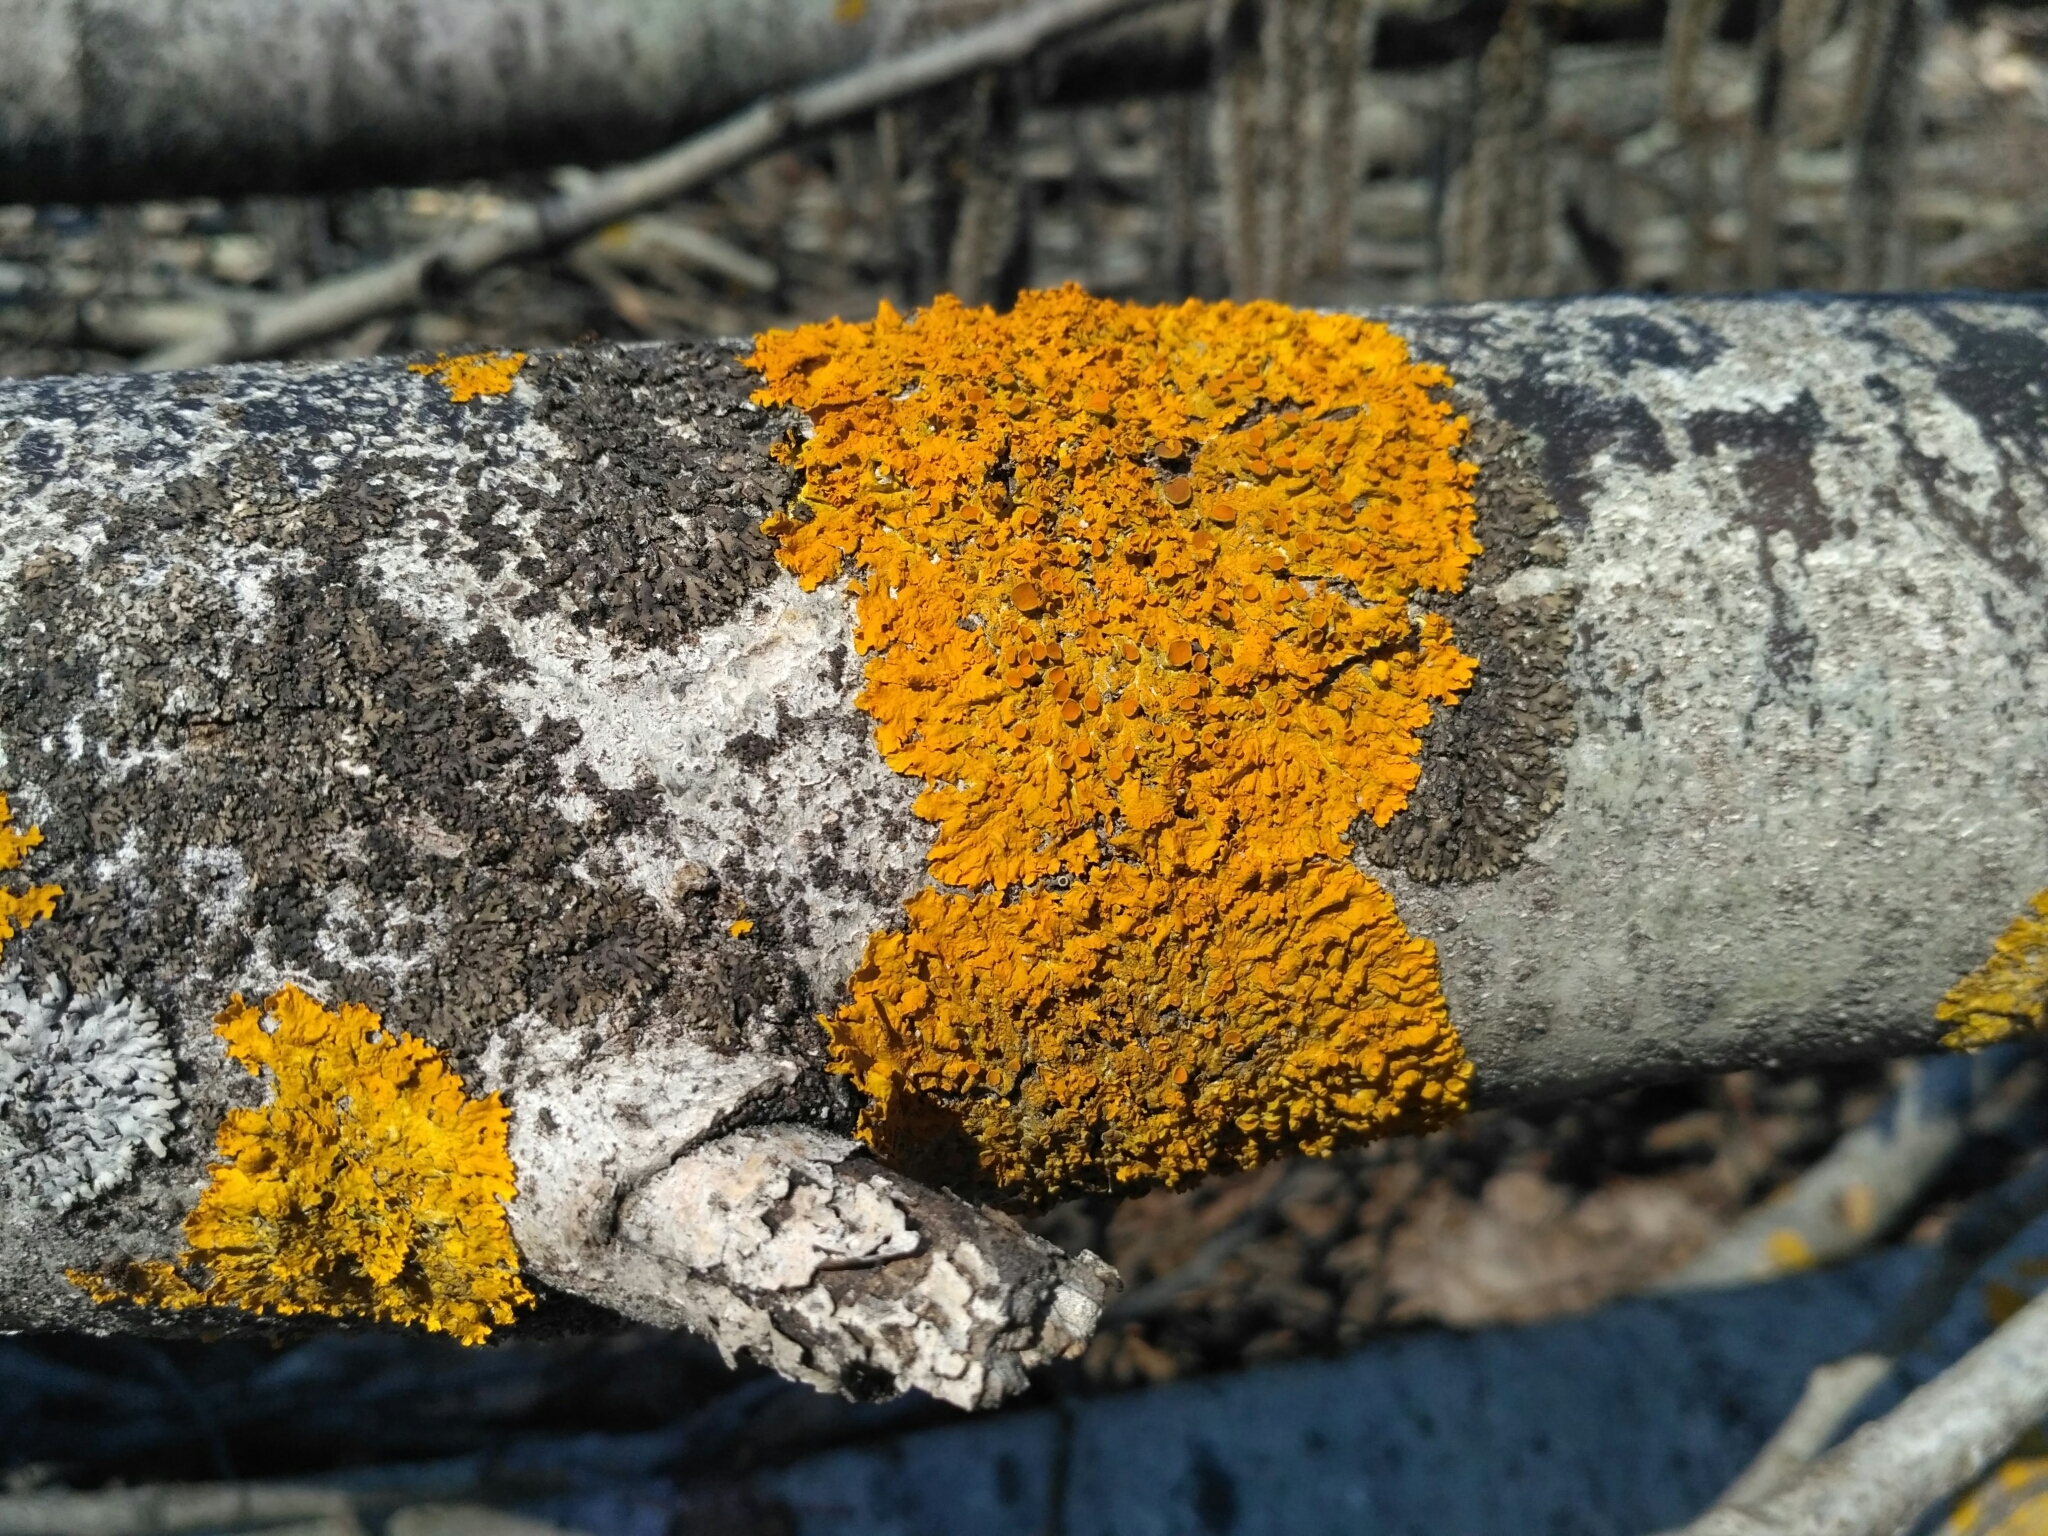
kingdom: Fungi
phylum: Ascomycota
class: Lecanoromycetes
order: Teloschistales
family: Teloschistaceae
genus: Xanthoria
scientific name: Xanthoria parietina
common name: Common orange lichen
